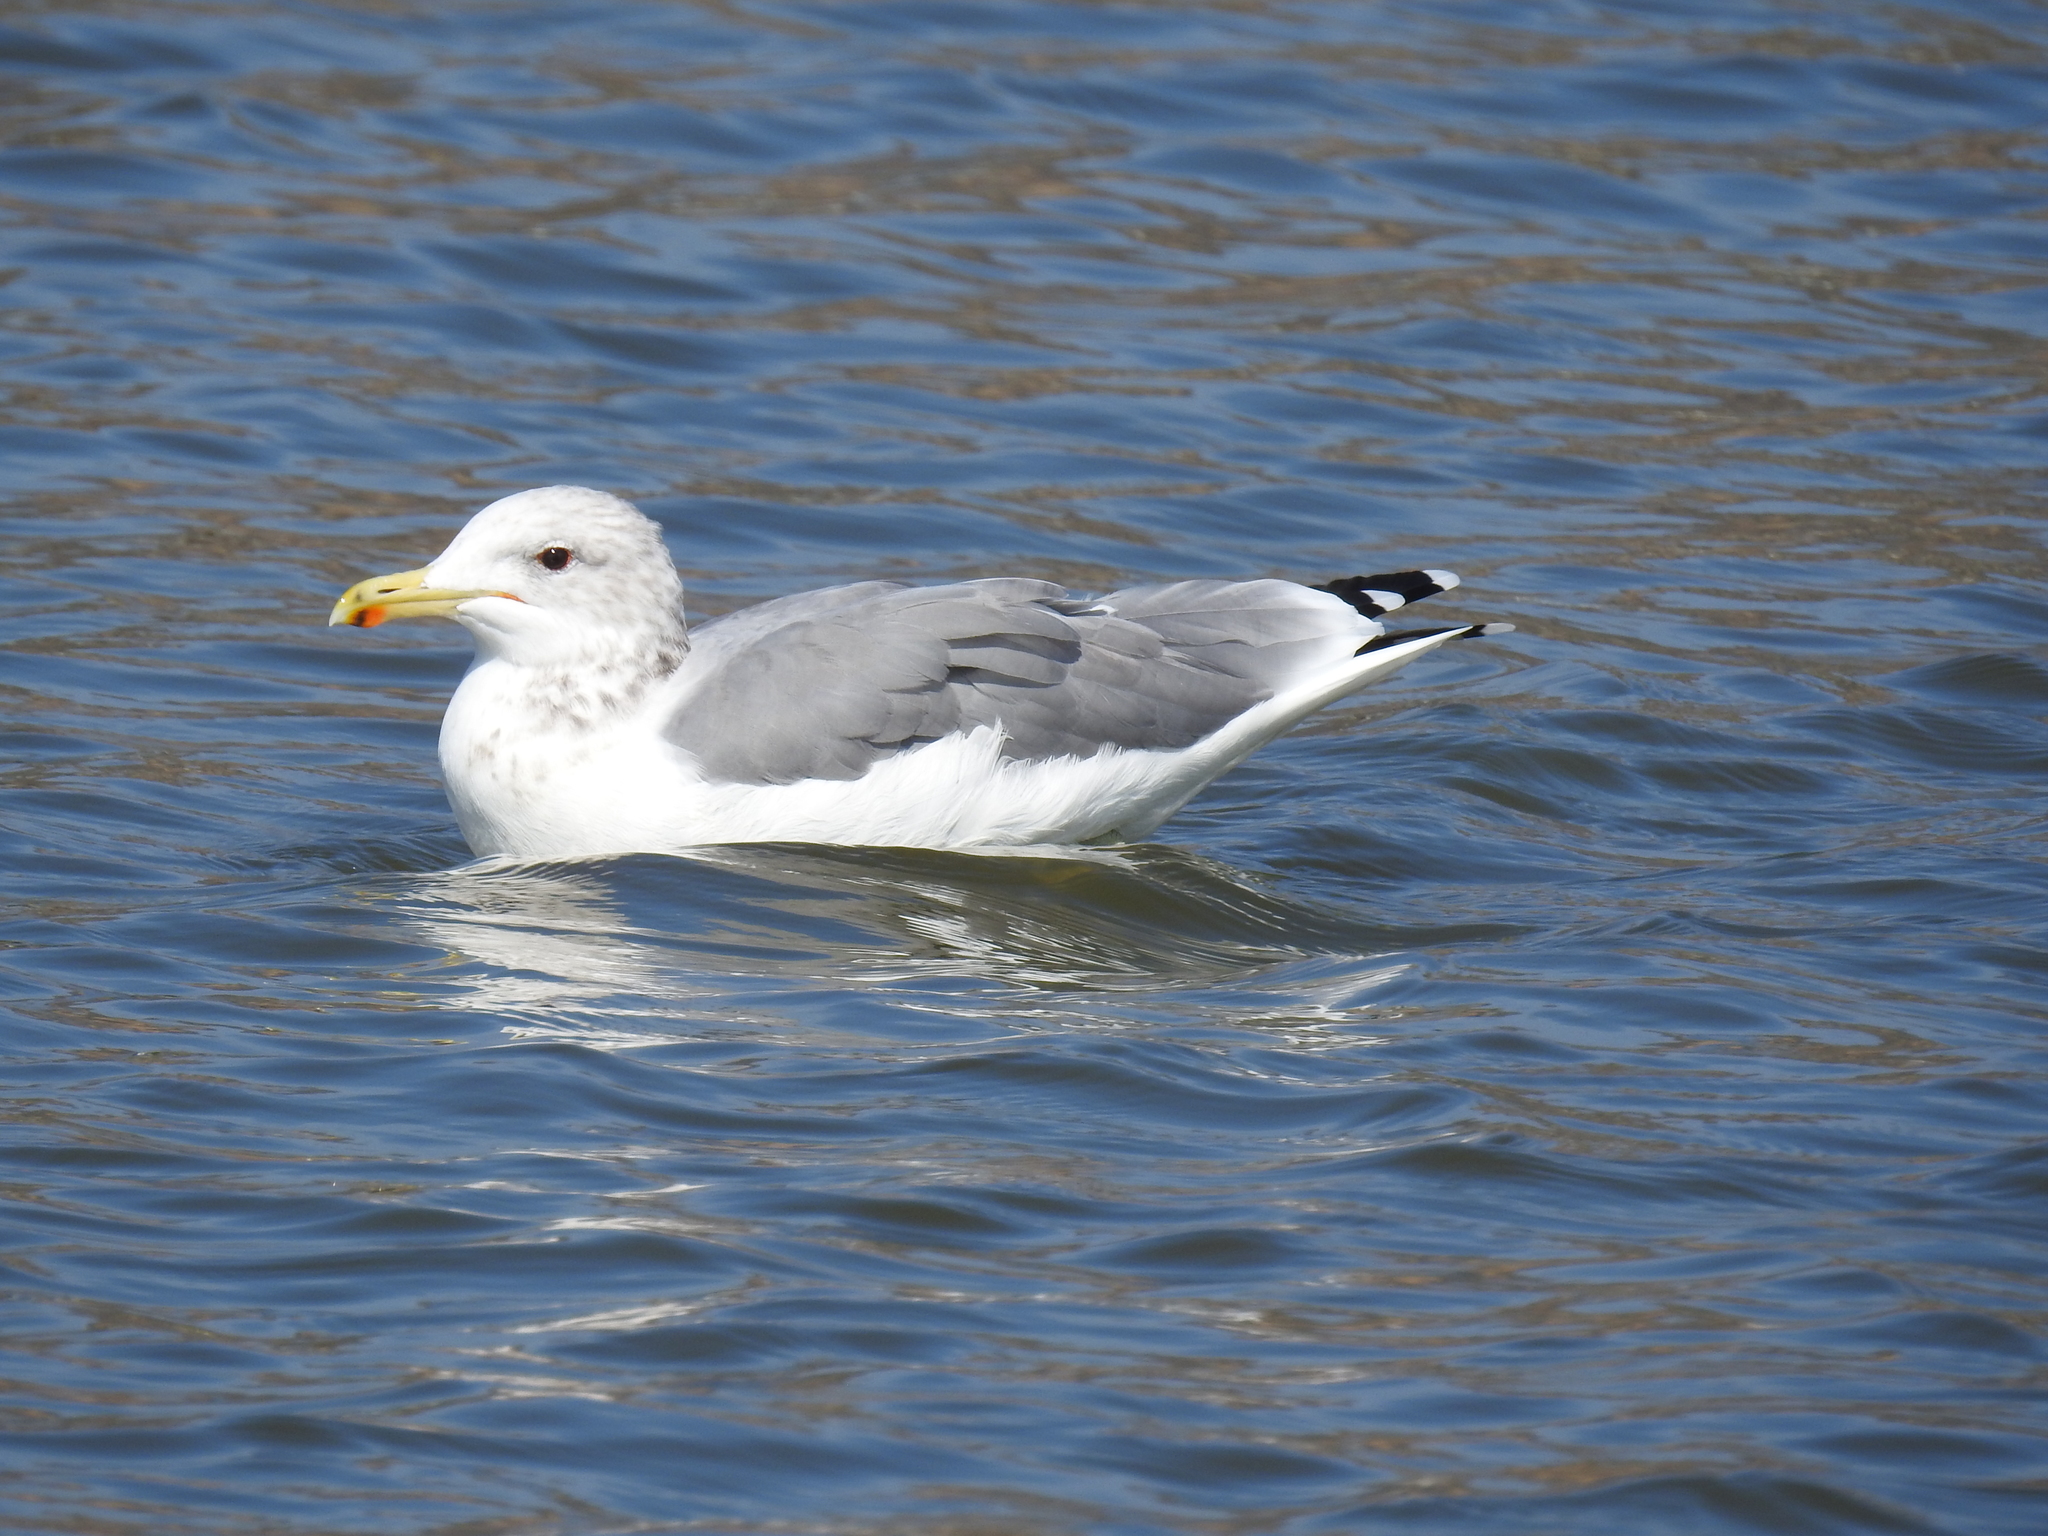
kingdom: Animalia
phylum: Chordata
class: Aves
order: Charadriiformes
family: Laridae
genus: Larus
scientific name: Larus californicus
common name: California gull
